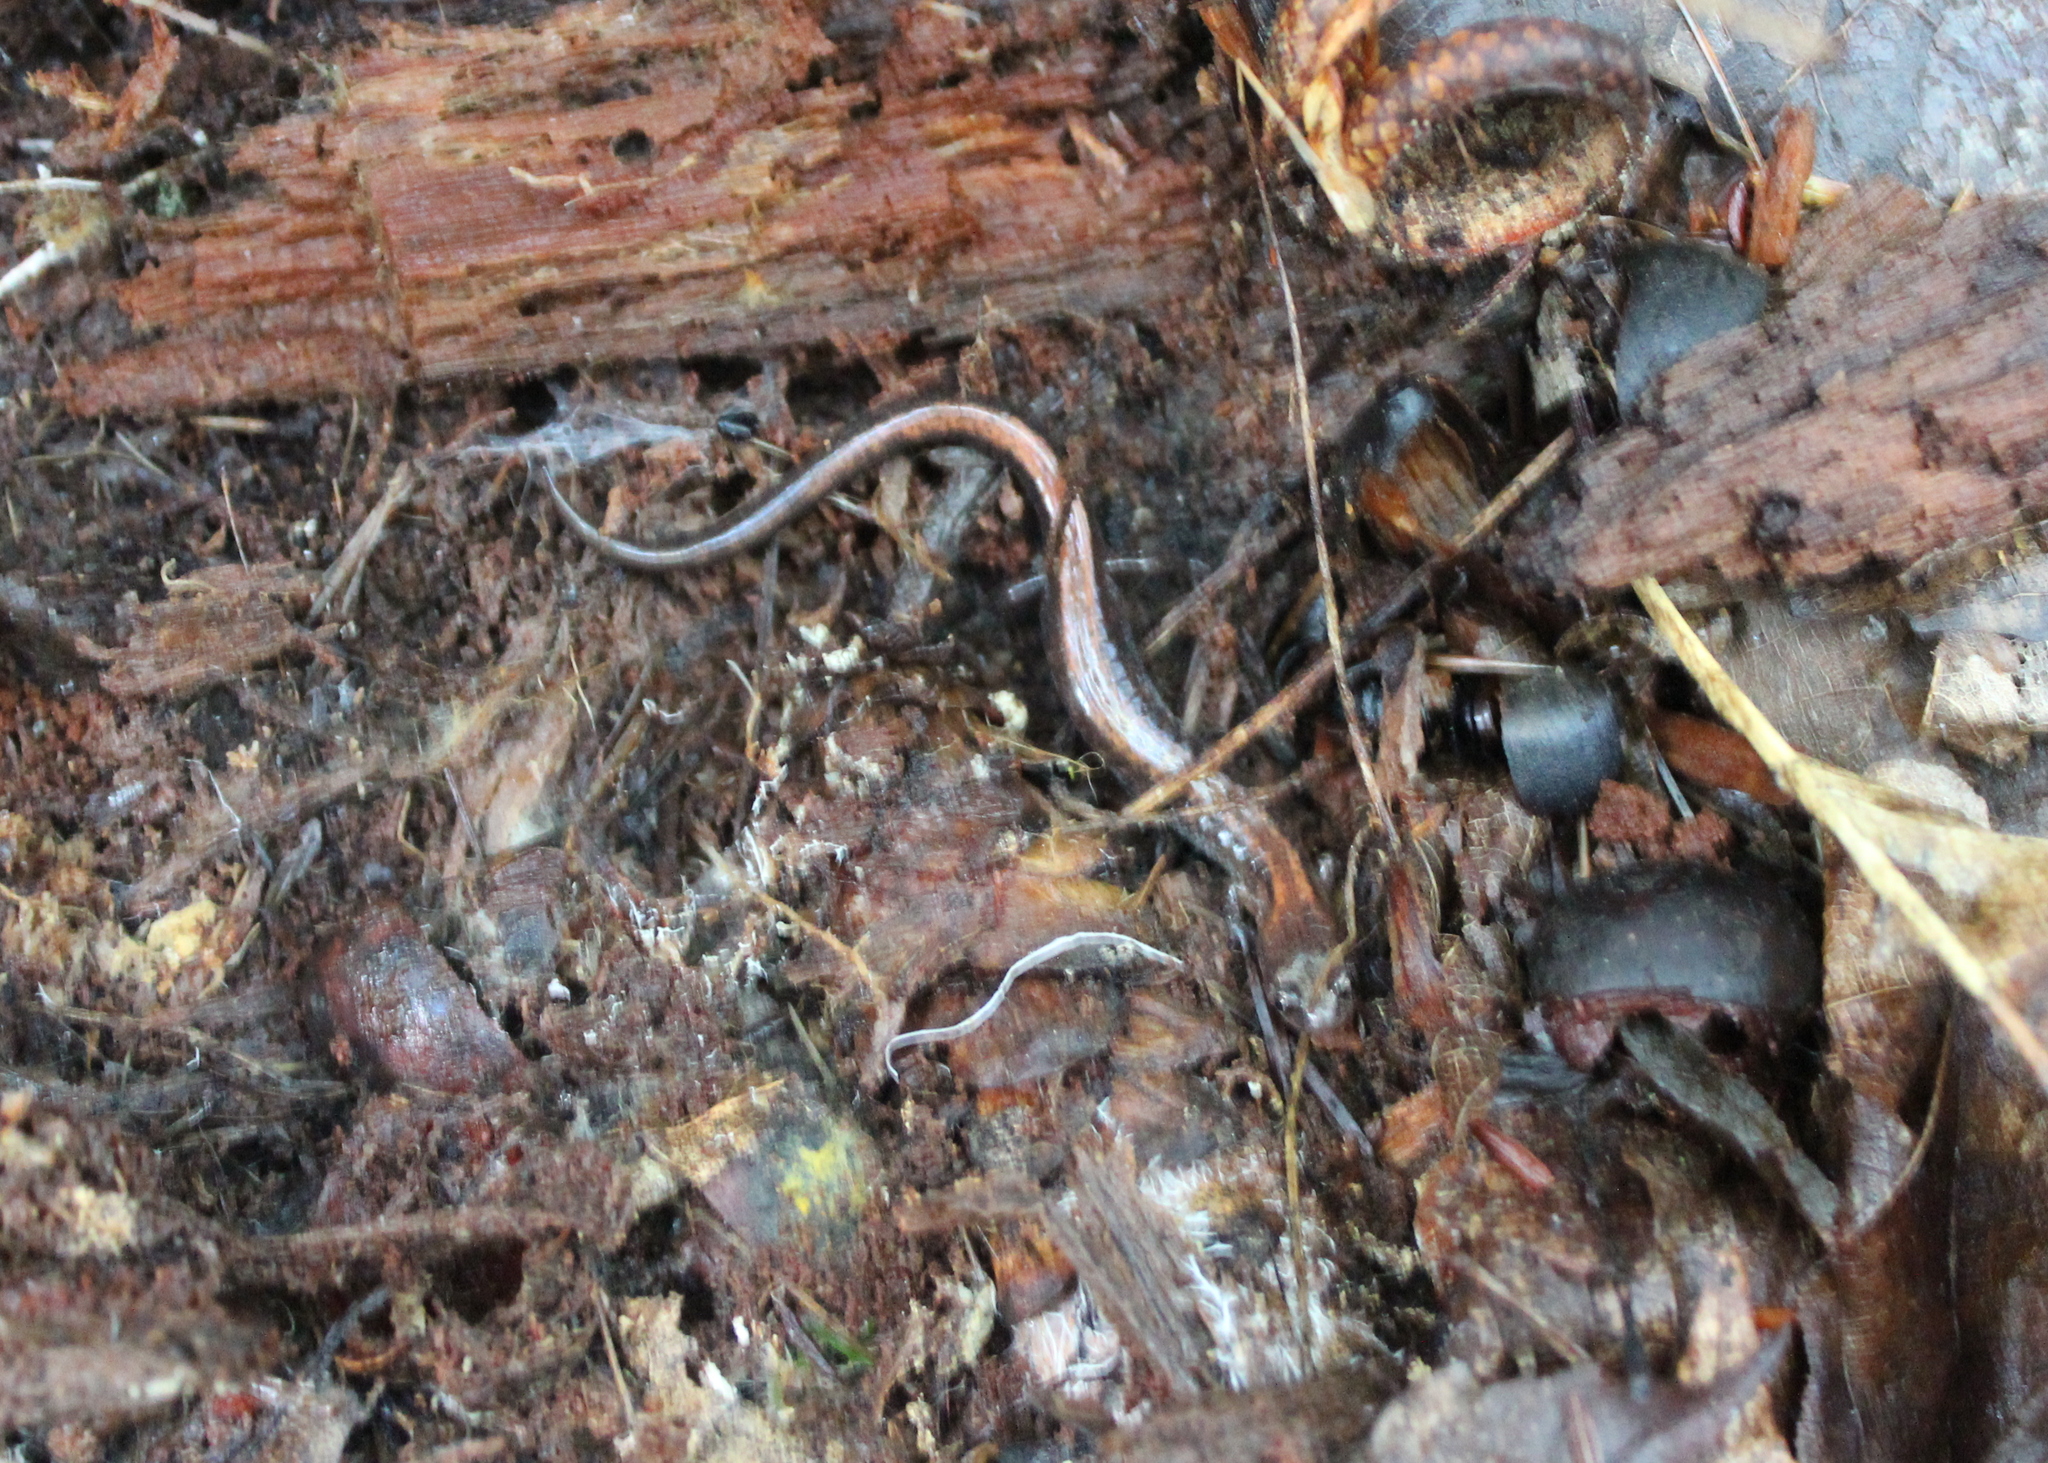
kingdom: Animalia
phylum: Chordata
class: Amphibia
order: Caudata
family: Plethodontidae
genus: Plethodon
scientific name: Plethodon cinereus
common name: Redback salamander
